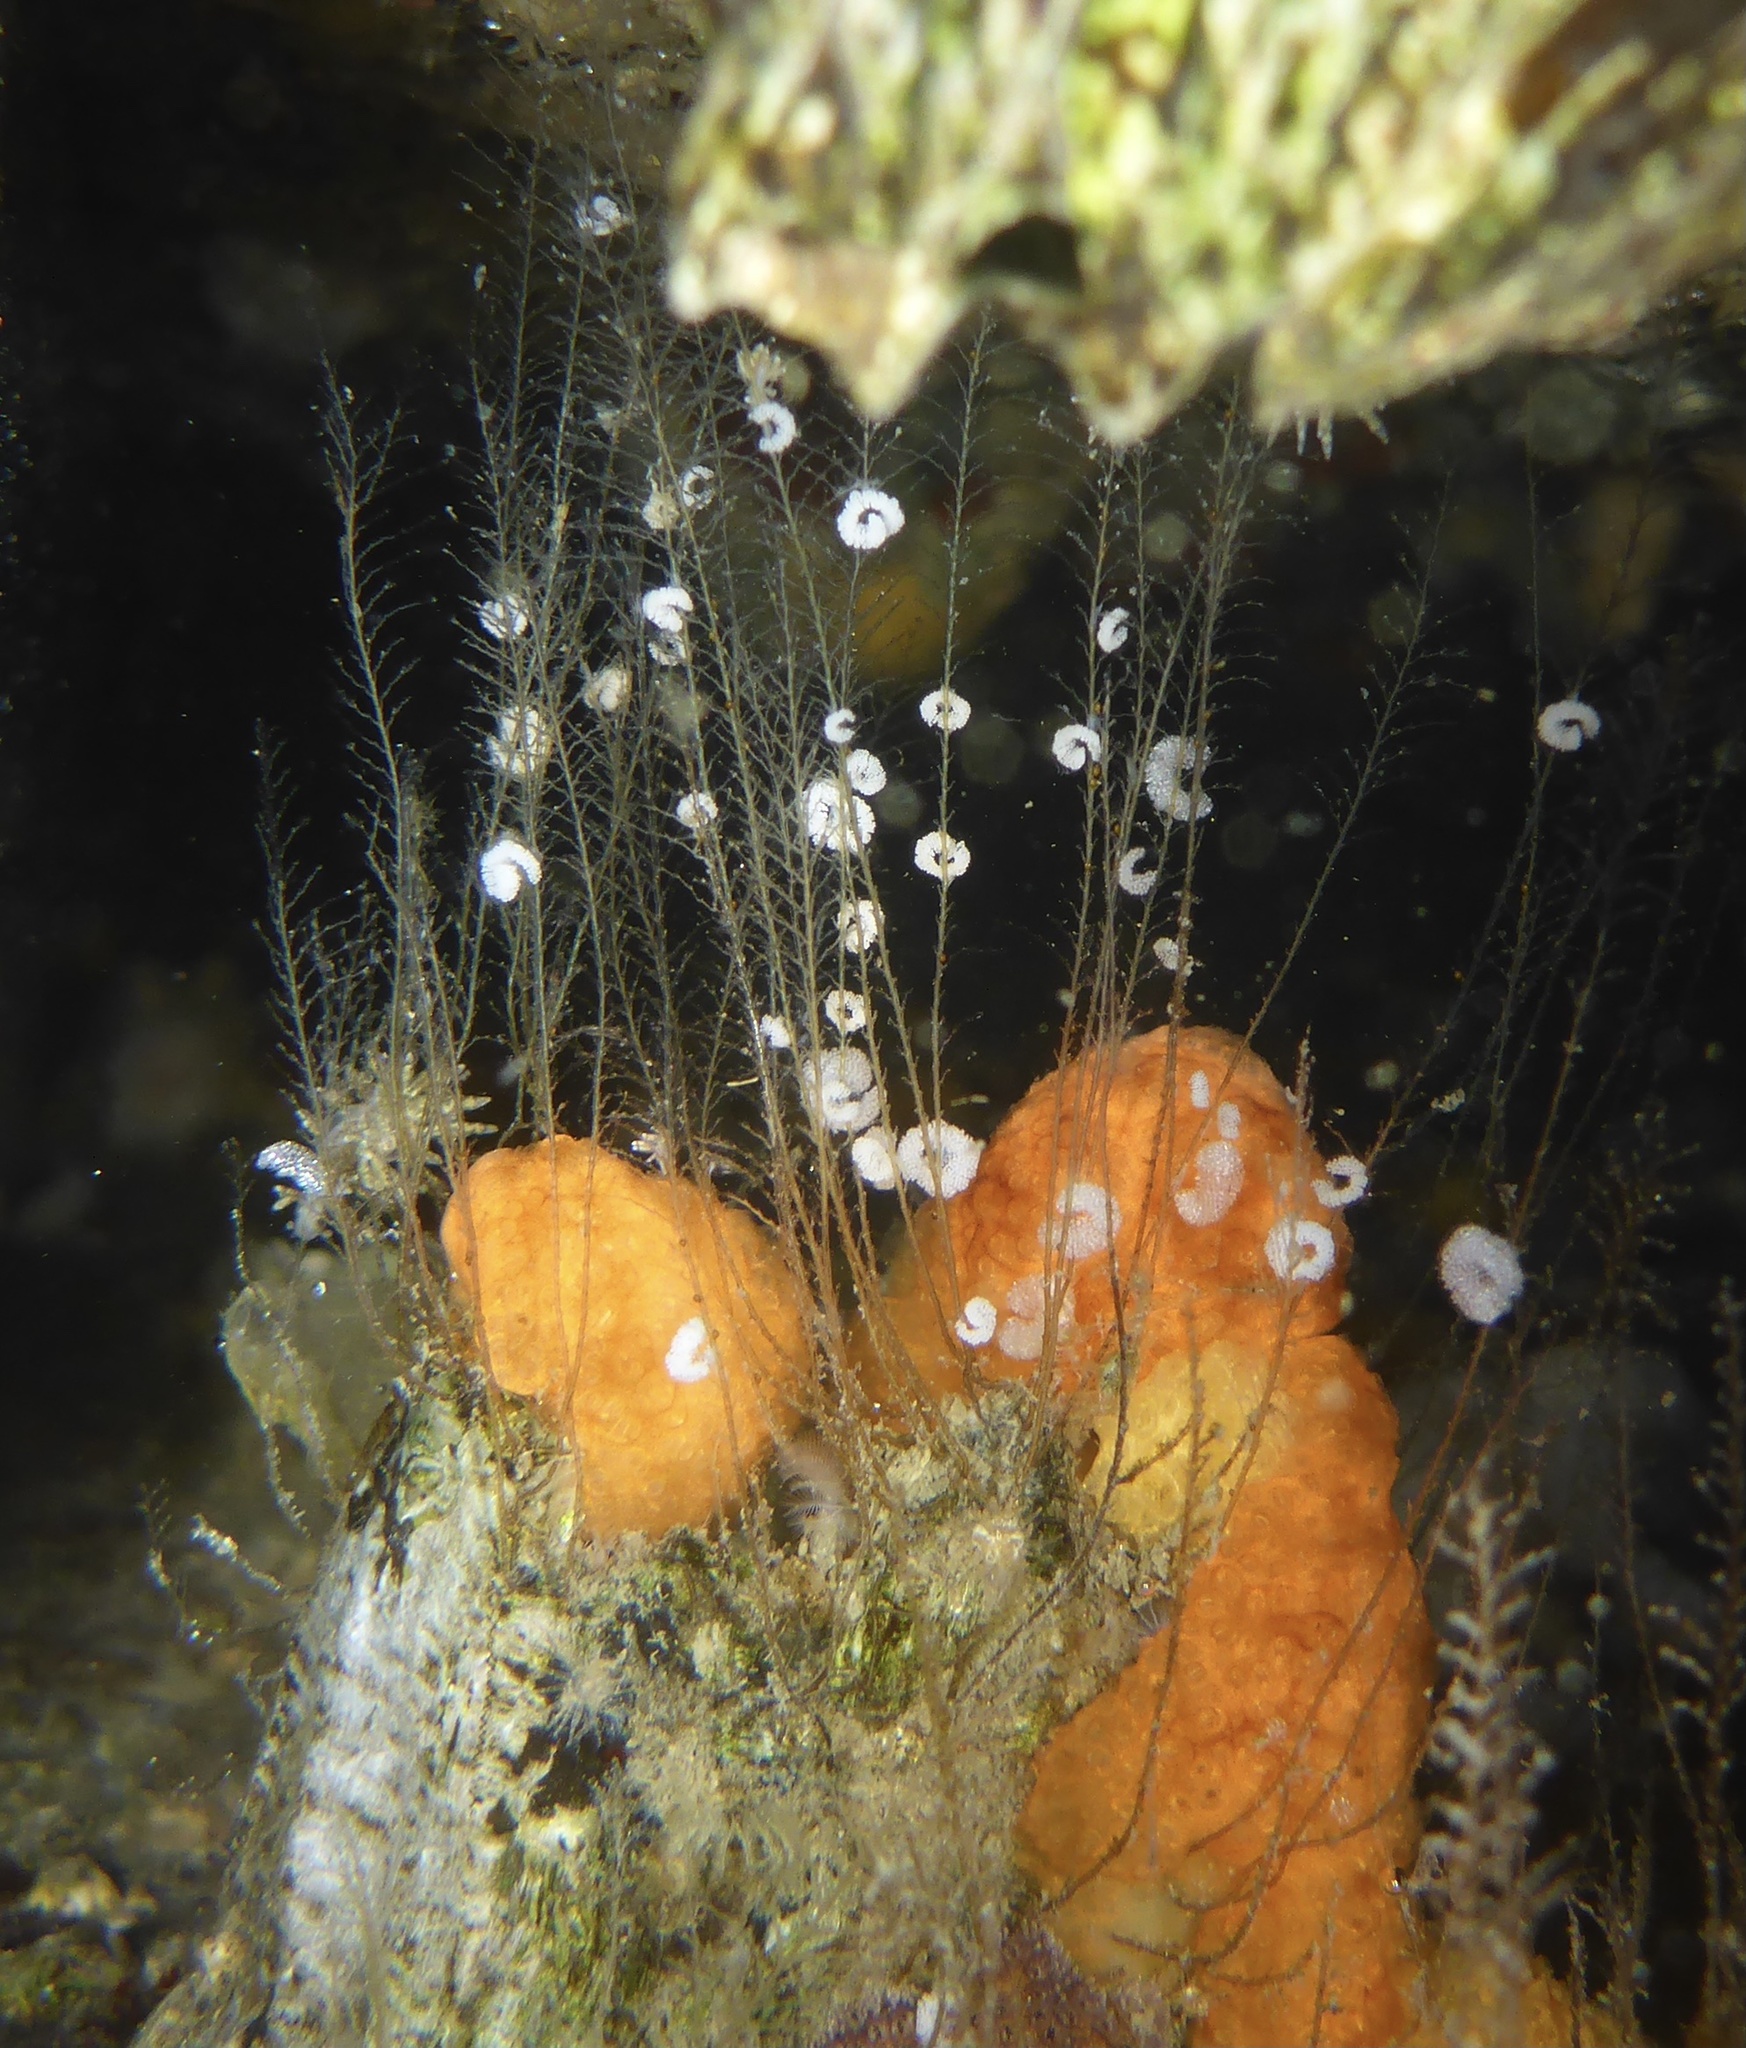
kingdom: Animalia
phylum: Mollusca
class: Gastropoda
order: Nudibranchia
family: Eubranchidae
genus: Eubranchus
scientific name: Eubranchus rustyus
